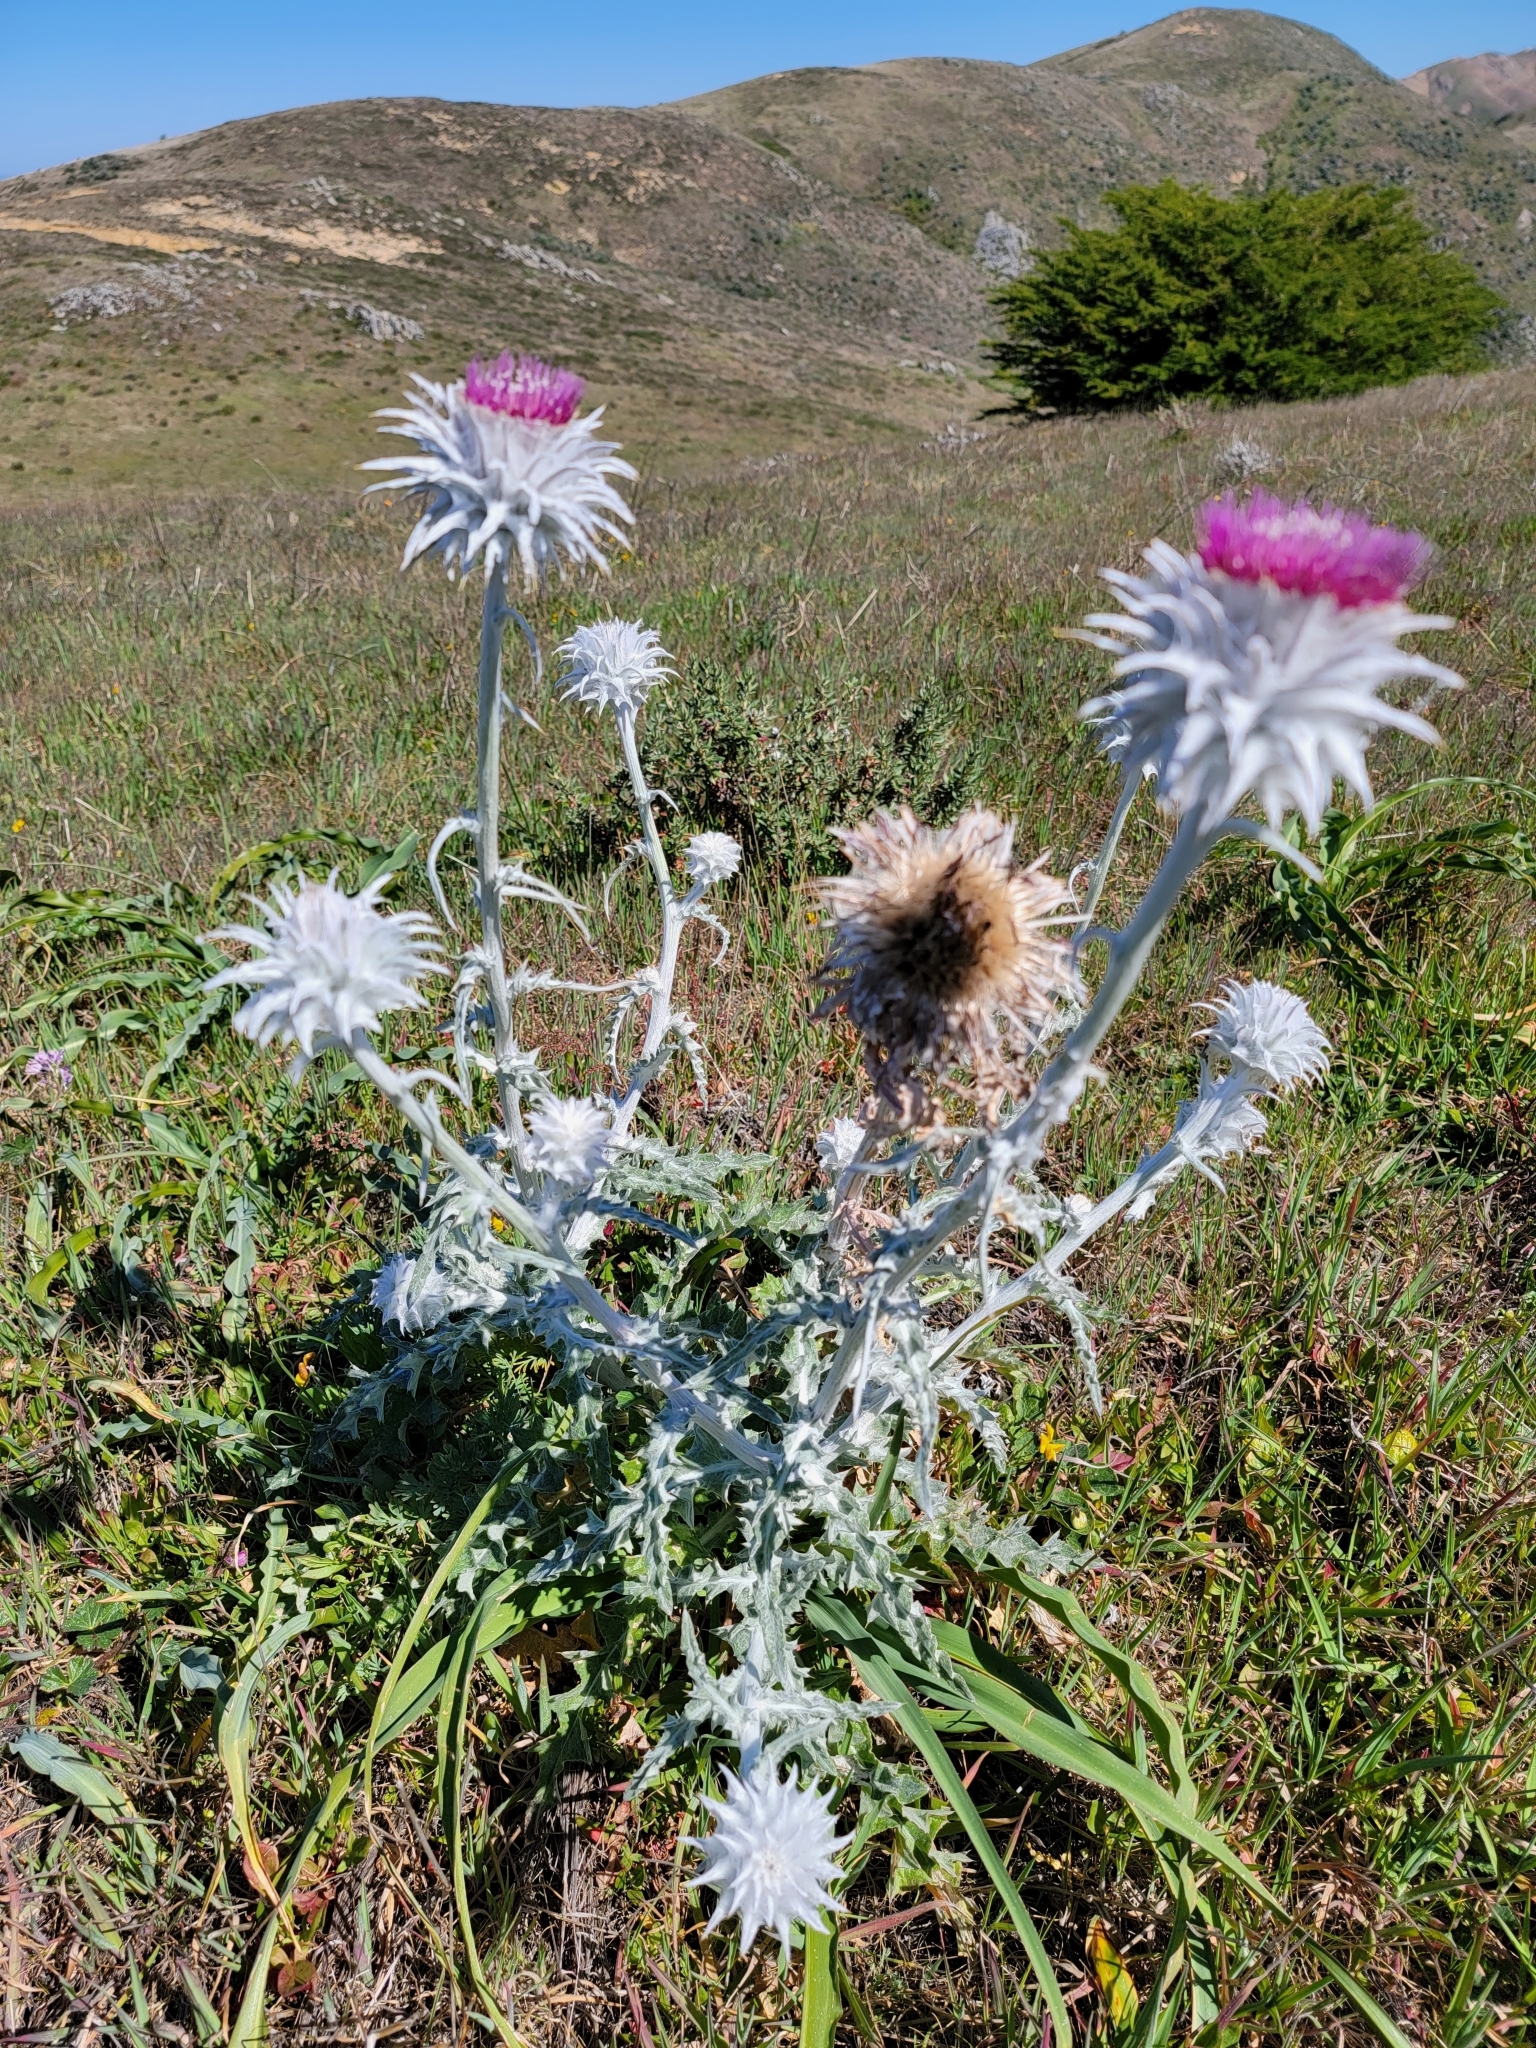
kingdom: Plantae
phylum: Tracheophyta
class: Magnoliopsida
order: Asterales
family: Asteraceae
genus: Cirsium
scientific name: Cirsium occidentale
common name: Western thistle
